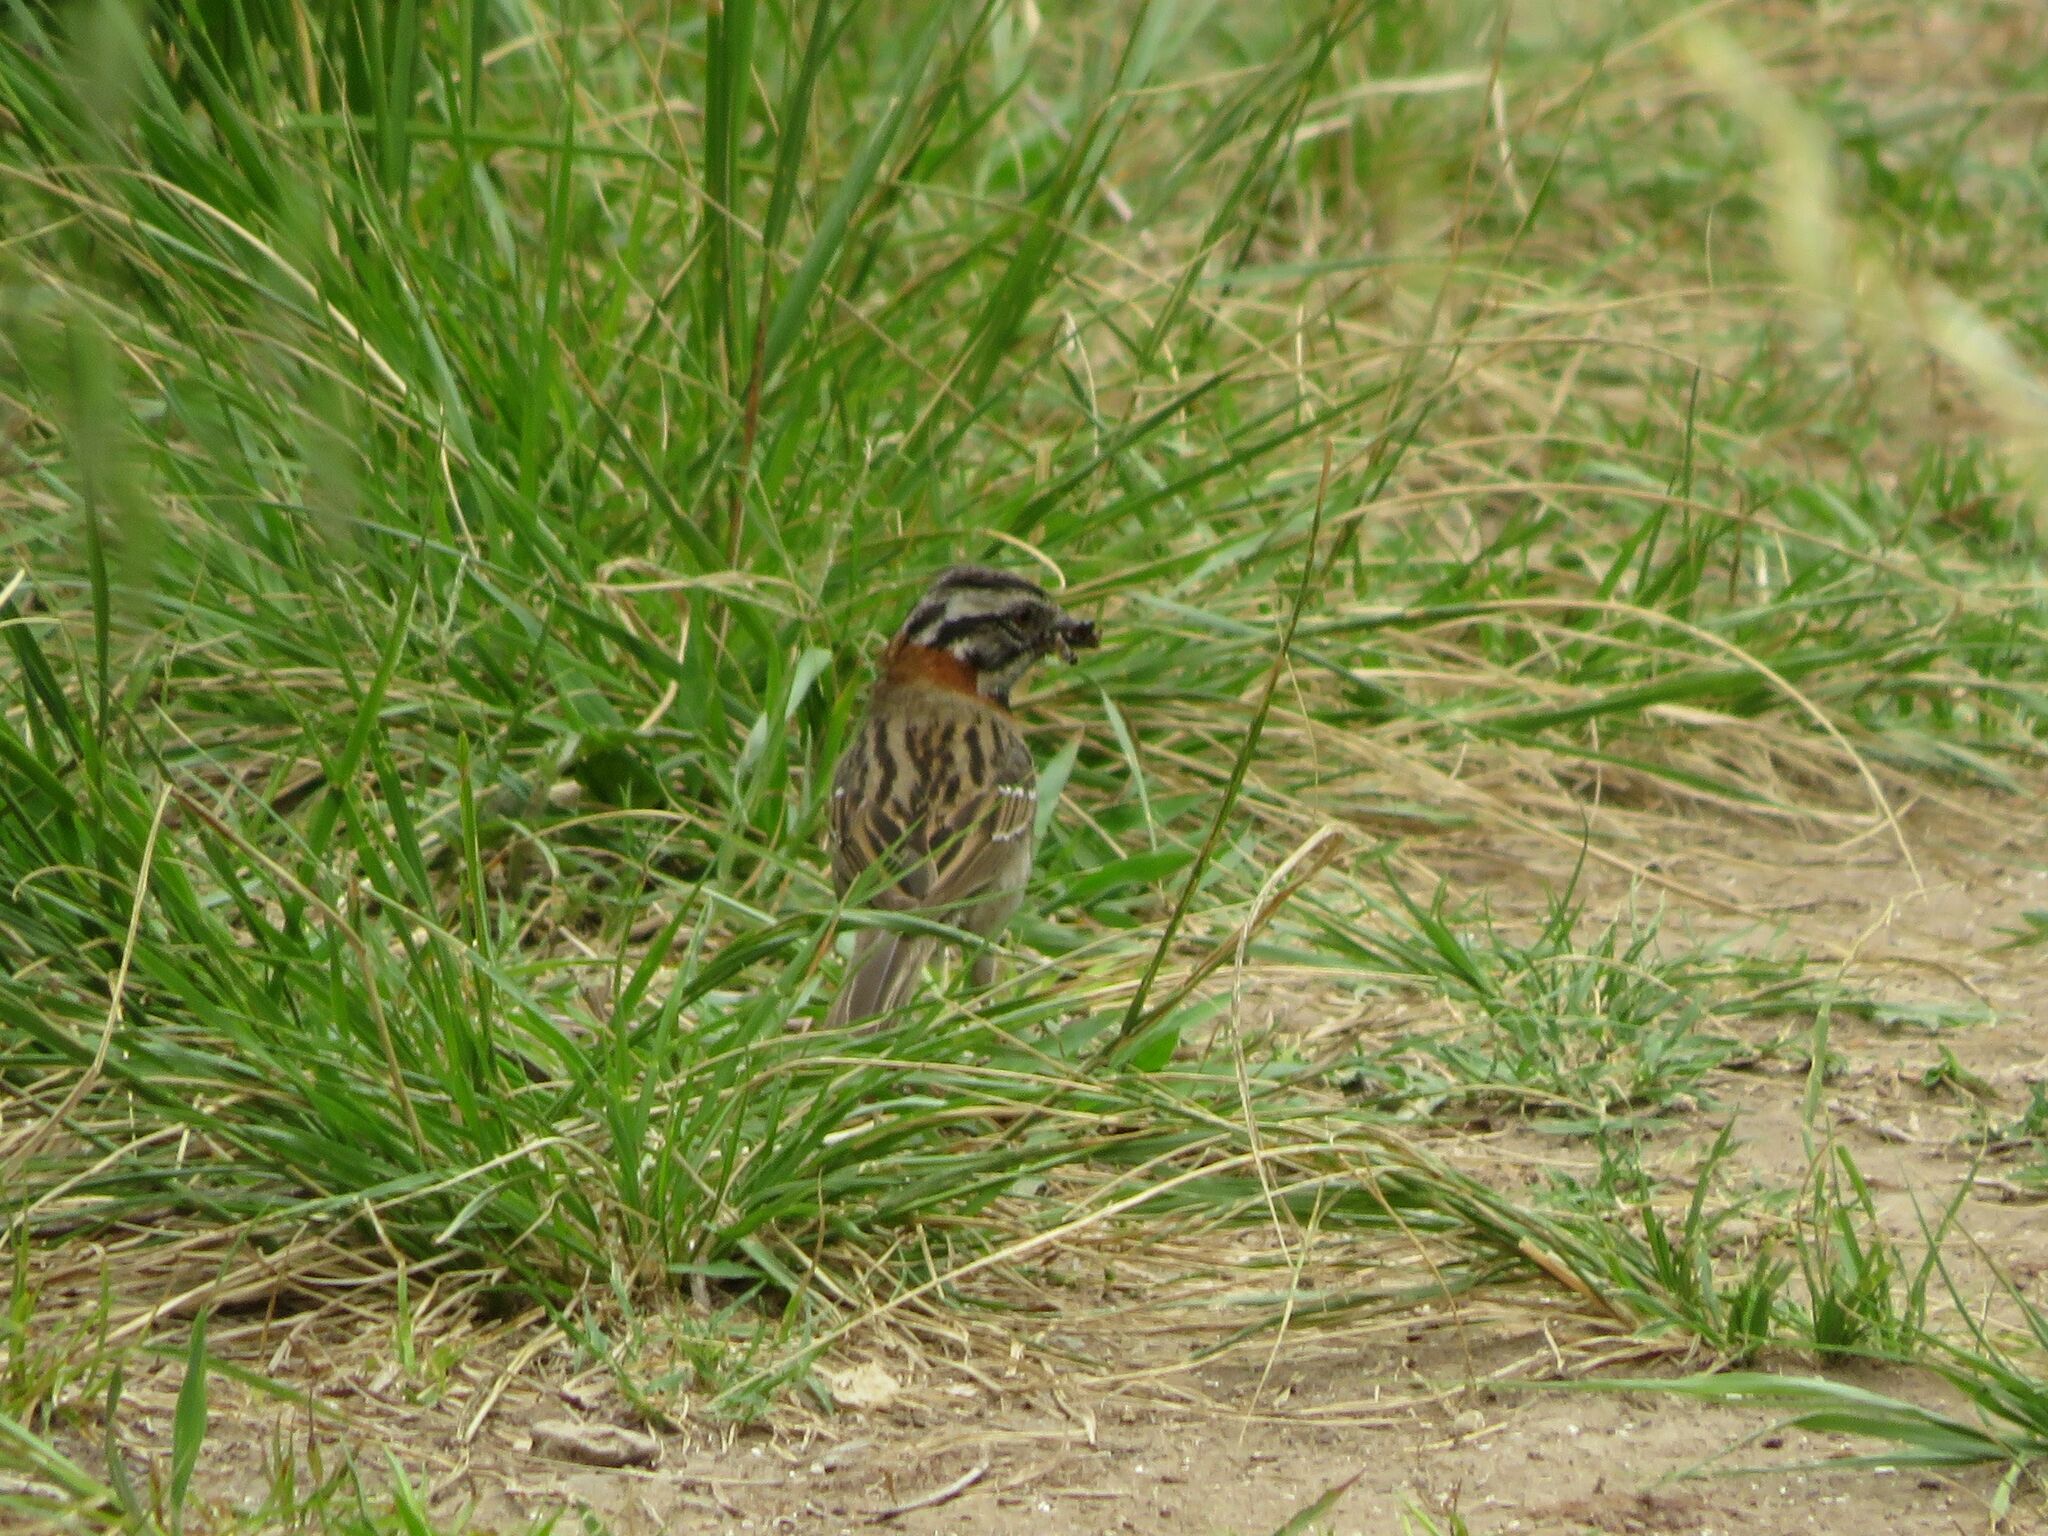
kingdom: Animalia
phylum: Chordata
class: Aves
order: Passeriformes
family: Passerellidae
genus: Zonotrichia
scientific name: Zonotrichia capensis
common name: Rufous-collared sparrow
